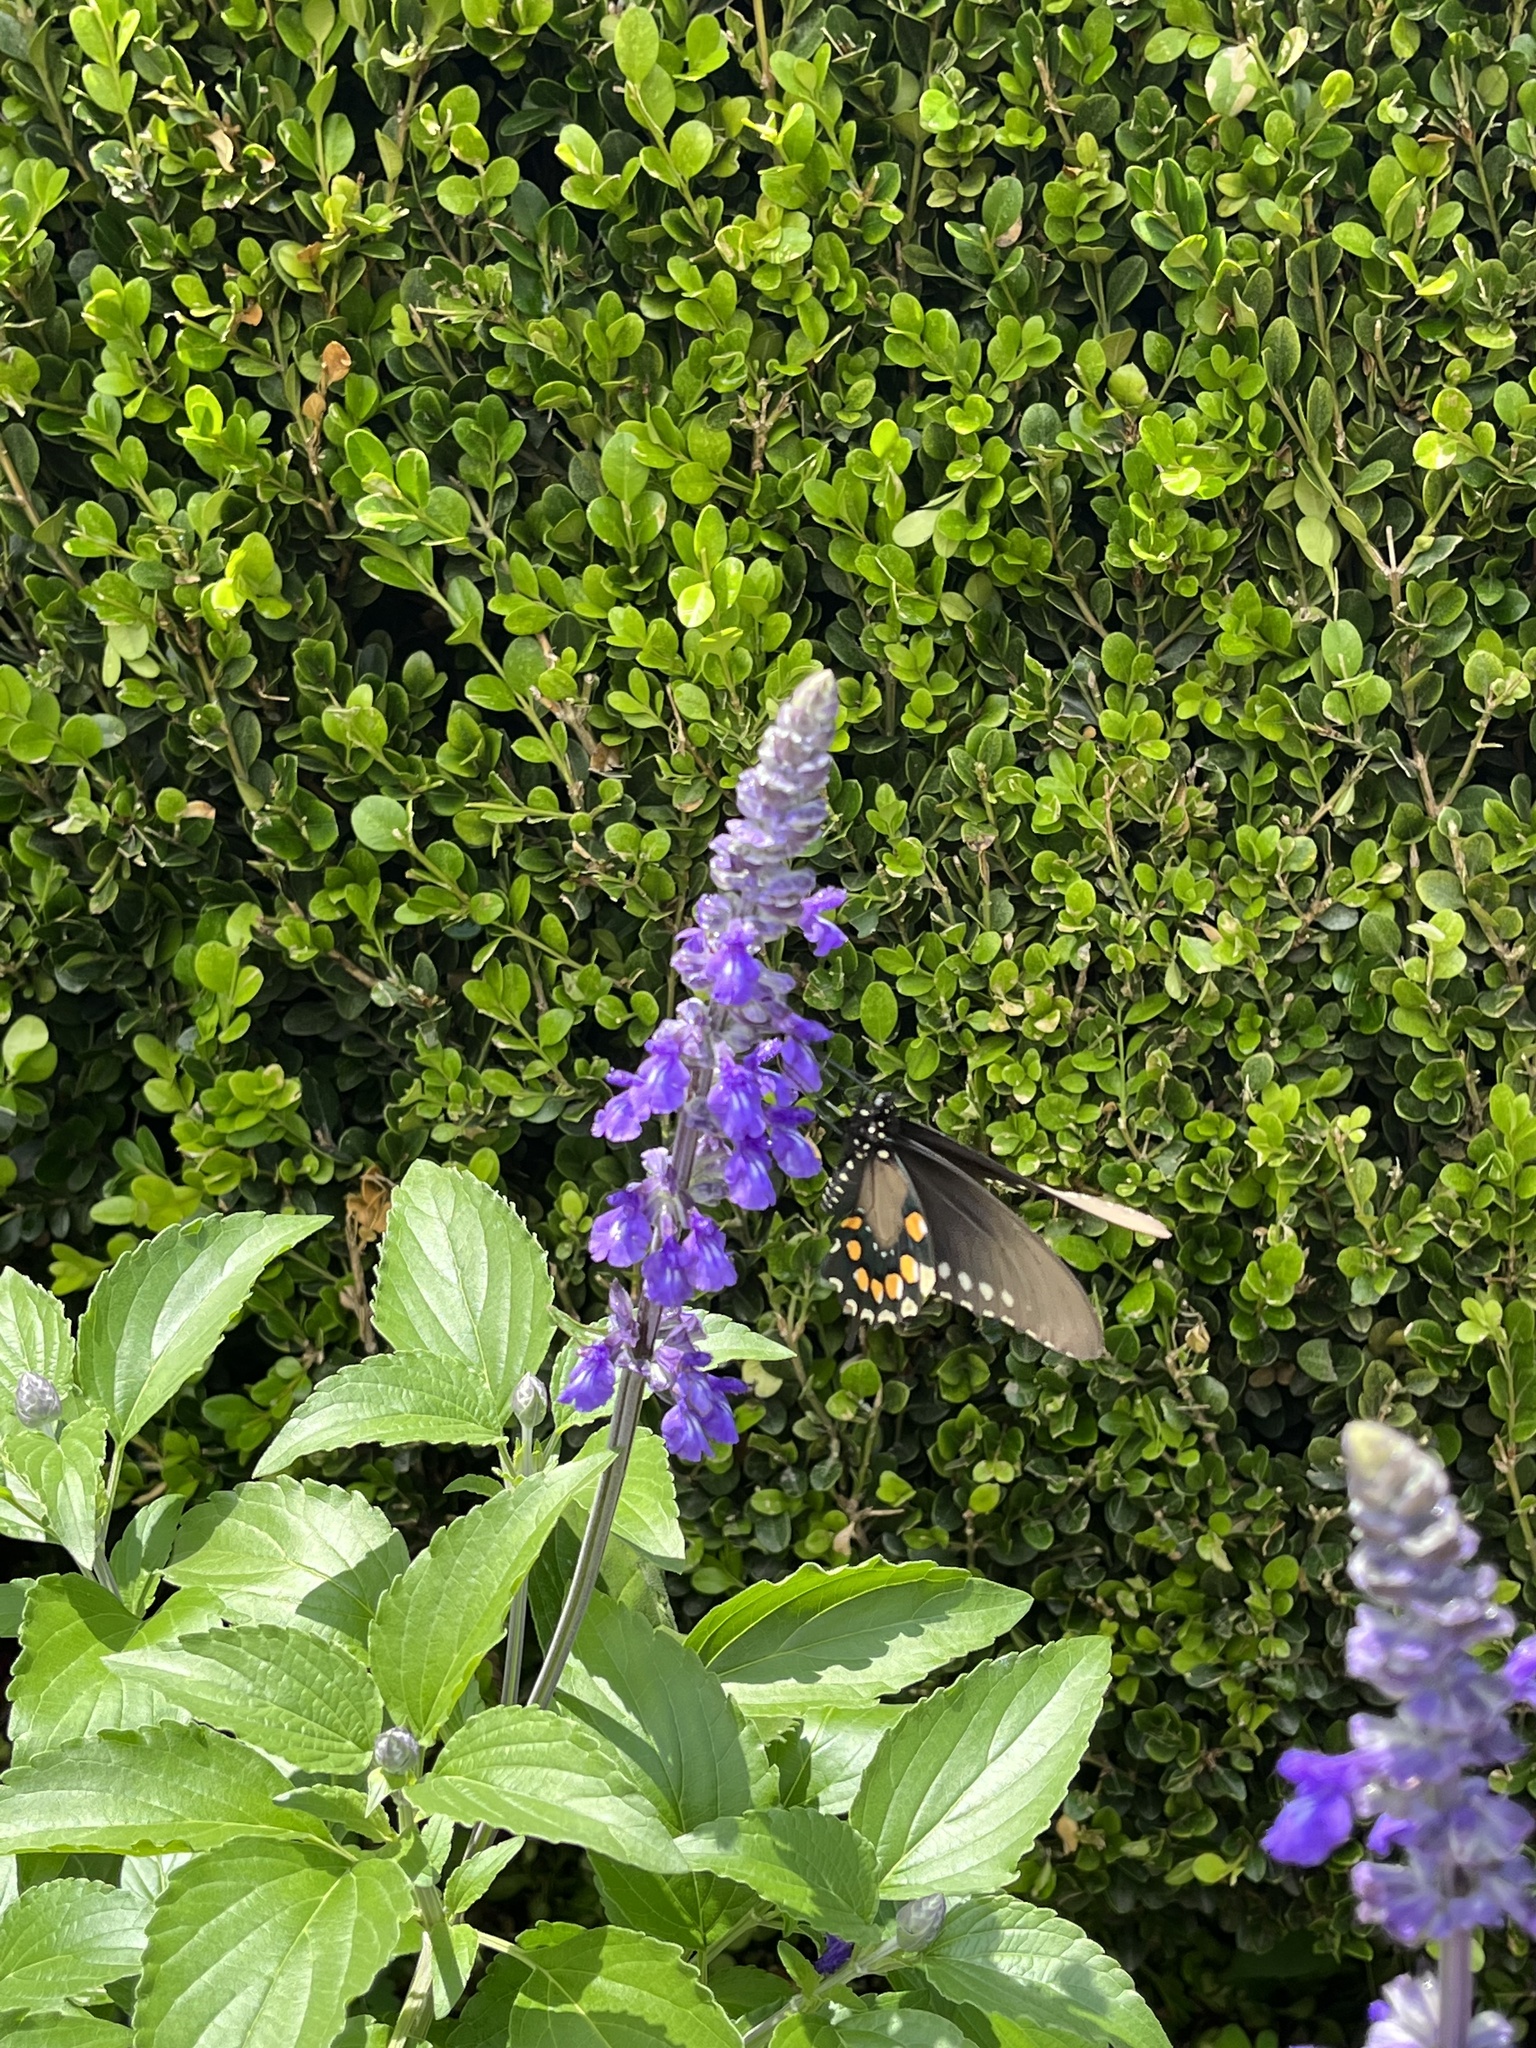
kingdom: Animalia
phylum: Arthropoda
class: Insecta
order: Lepidoptera
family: Papilionidae
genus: Battus
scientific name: Battus philenor
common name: Pipevine swallowtail
